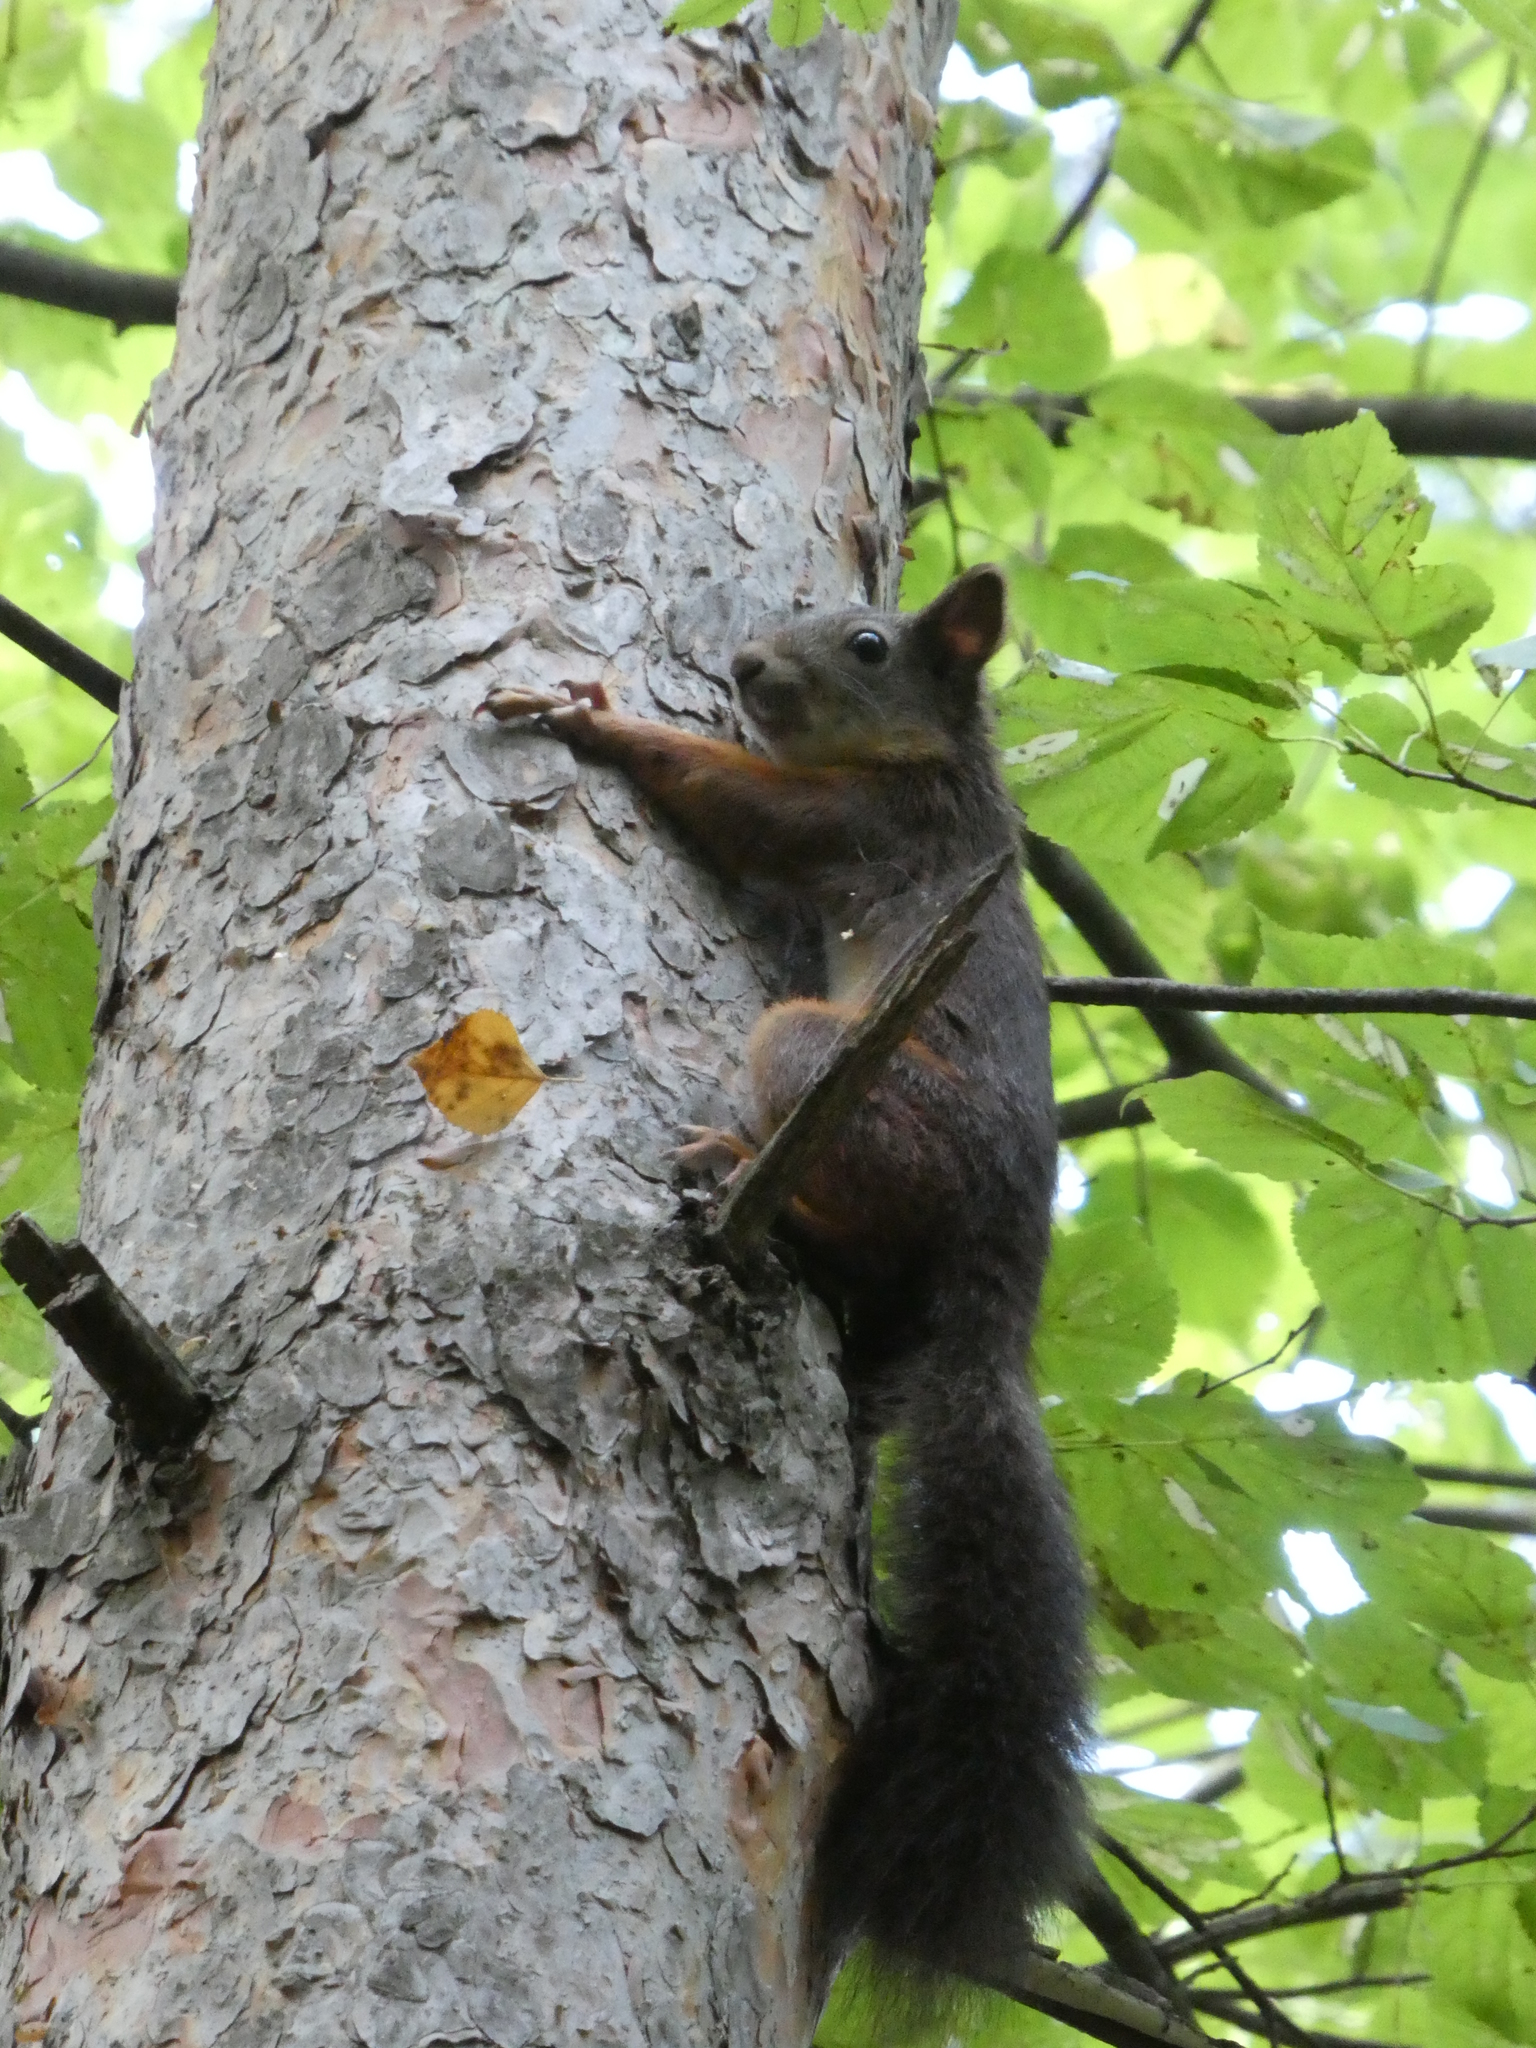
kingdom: Animalia
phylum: Chordata
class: Mammalia
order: Rodentia
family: Sciuridae
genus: Sciurus
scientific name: Sciurus vulgaris
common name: Eurasian red squirrel
